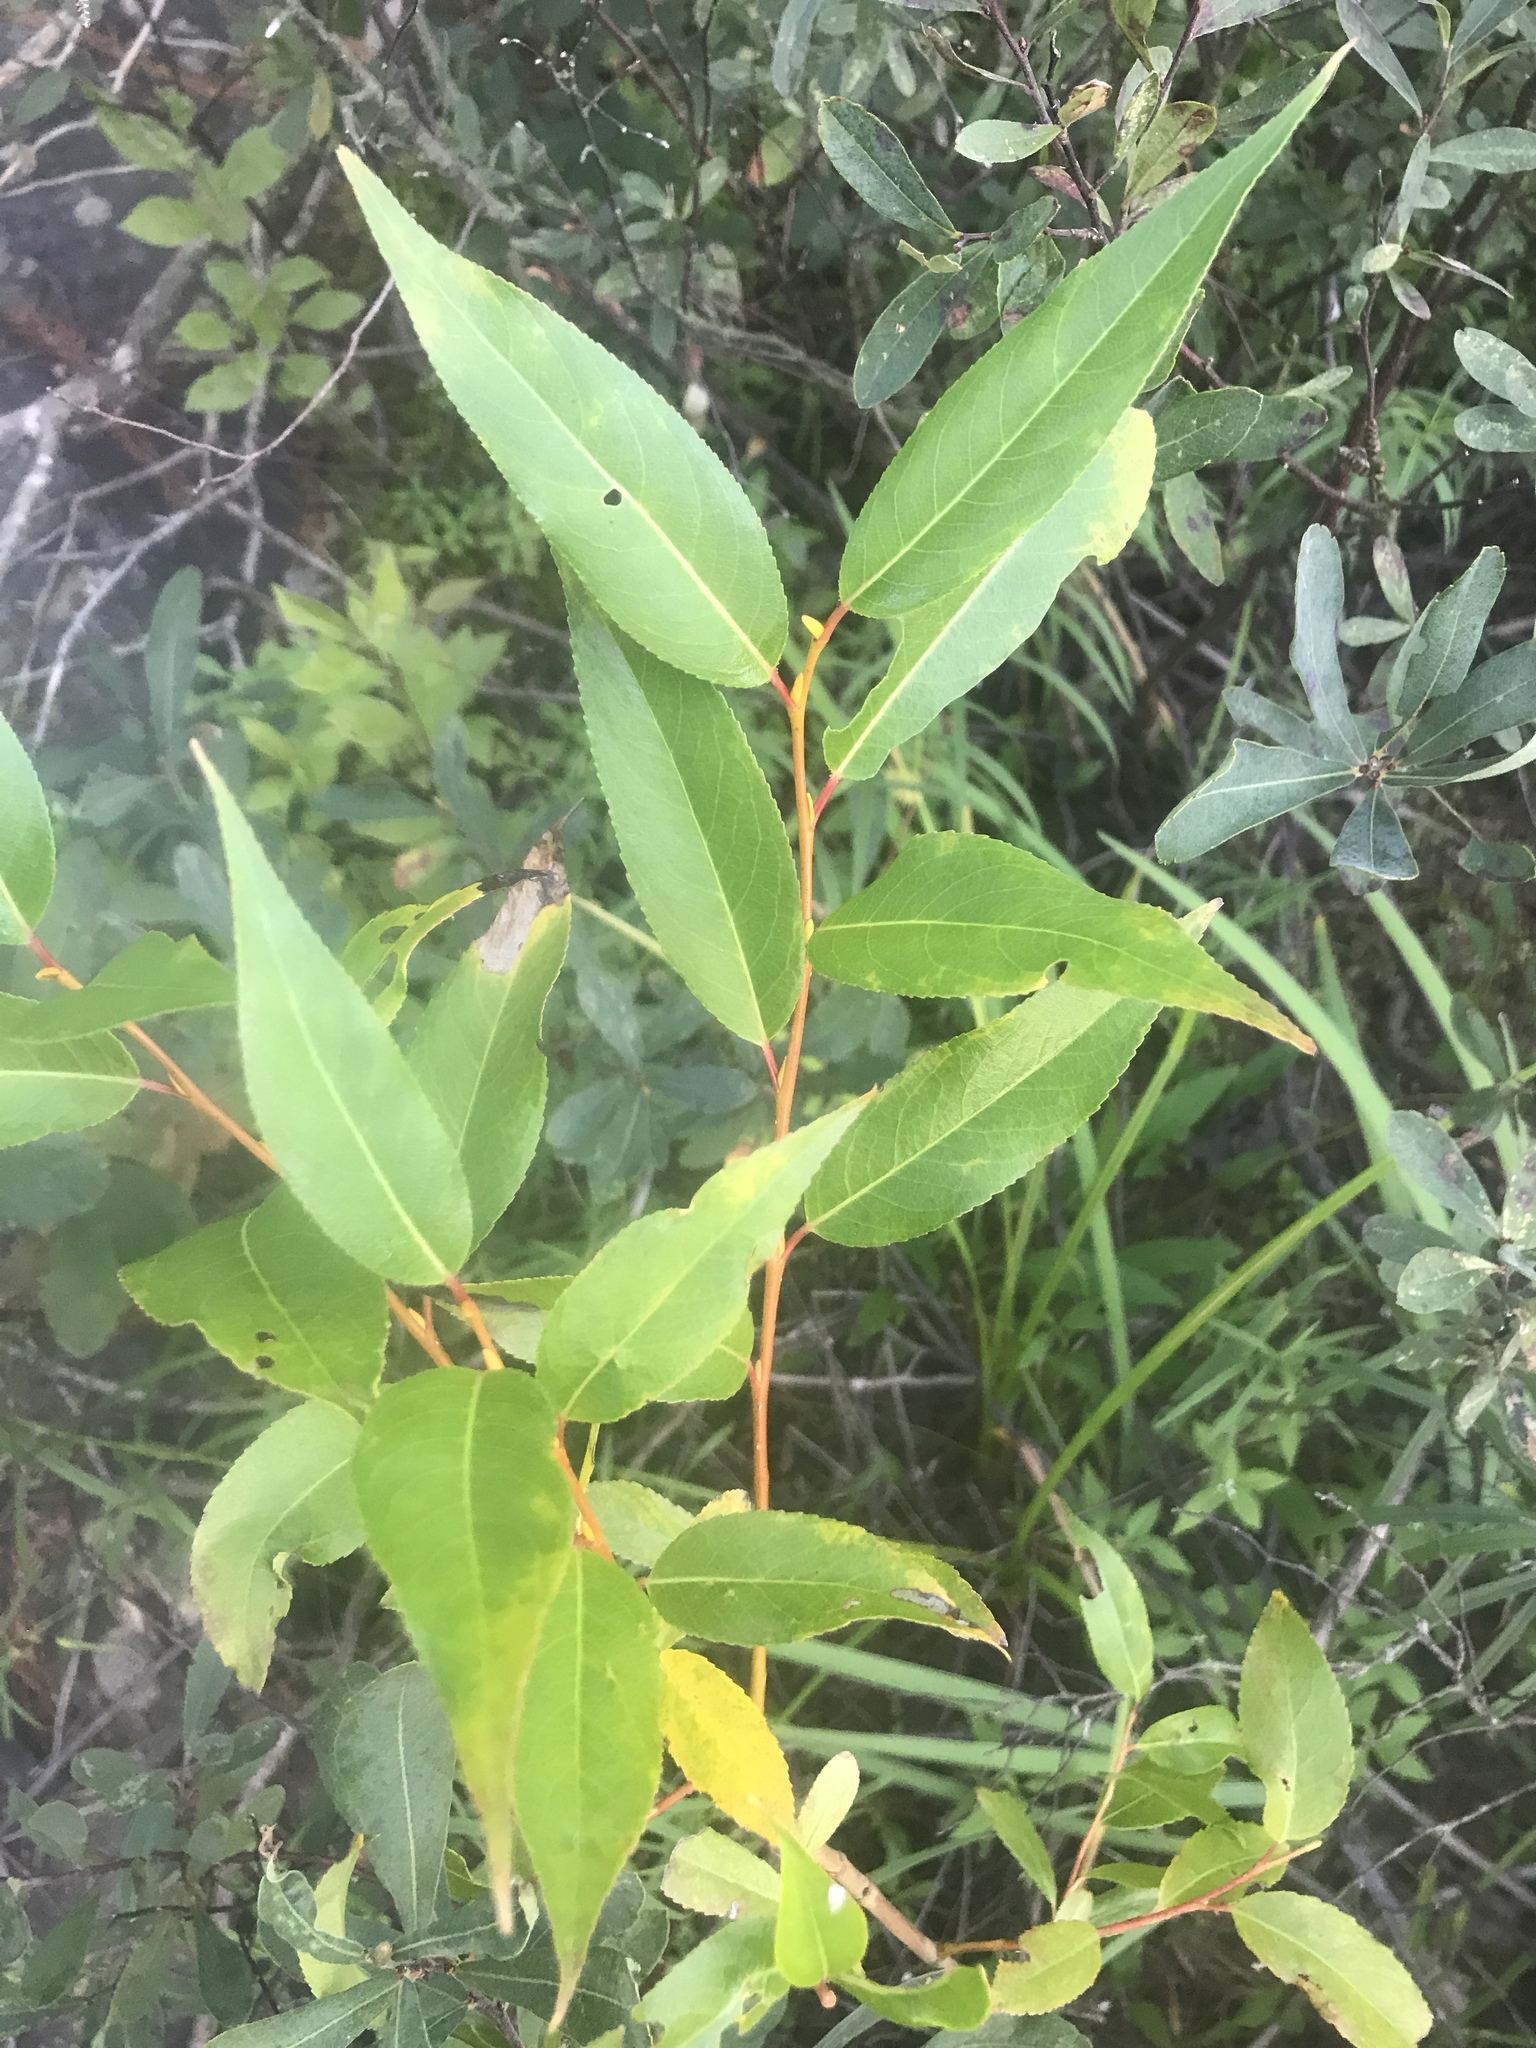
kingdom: Plantae
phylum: Tracheophyta
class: Magnoliopsida
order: Malpighiales
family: Salicaceae
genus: Salix
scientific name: Salix lucida
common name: Shining willow
